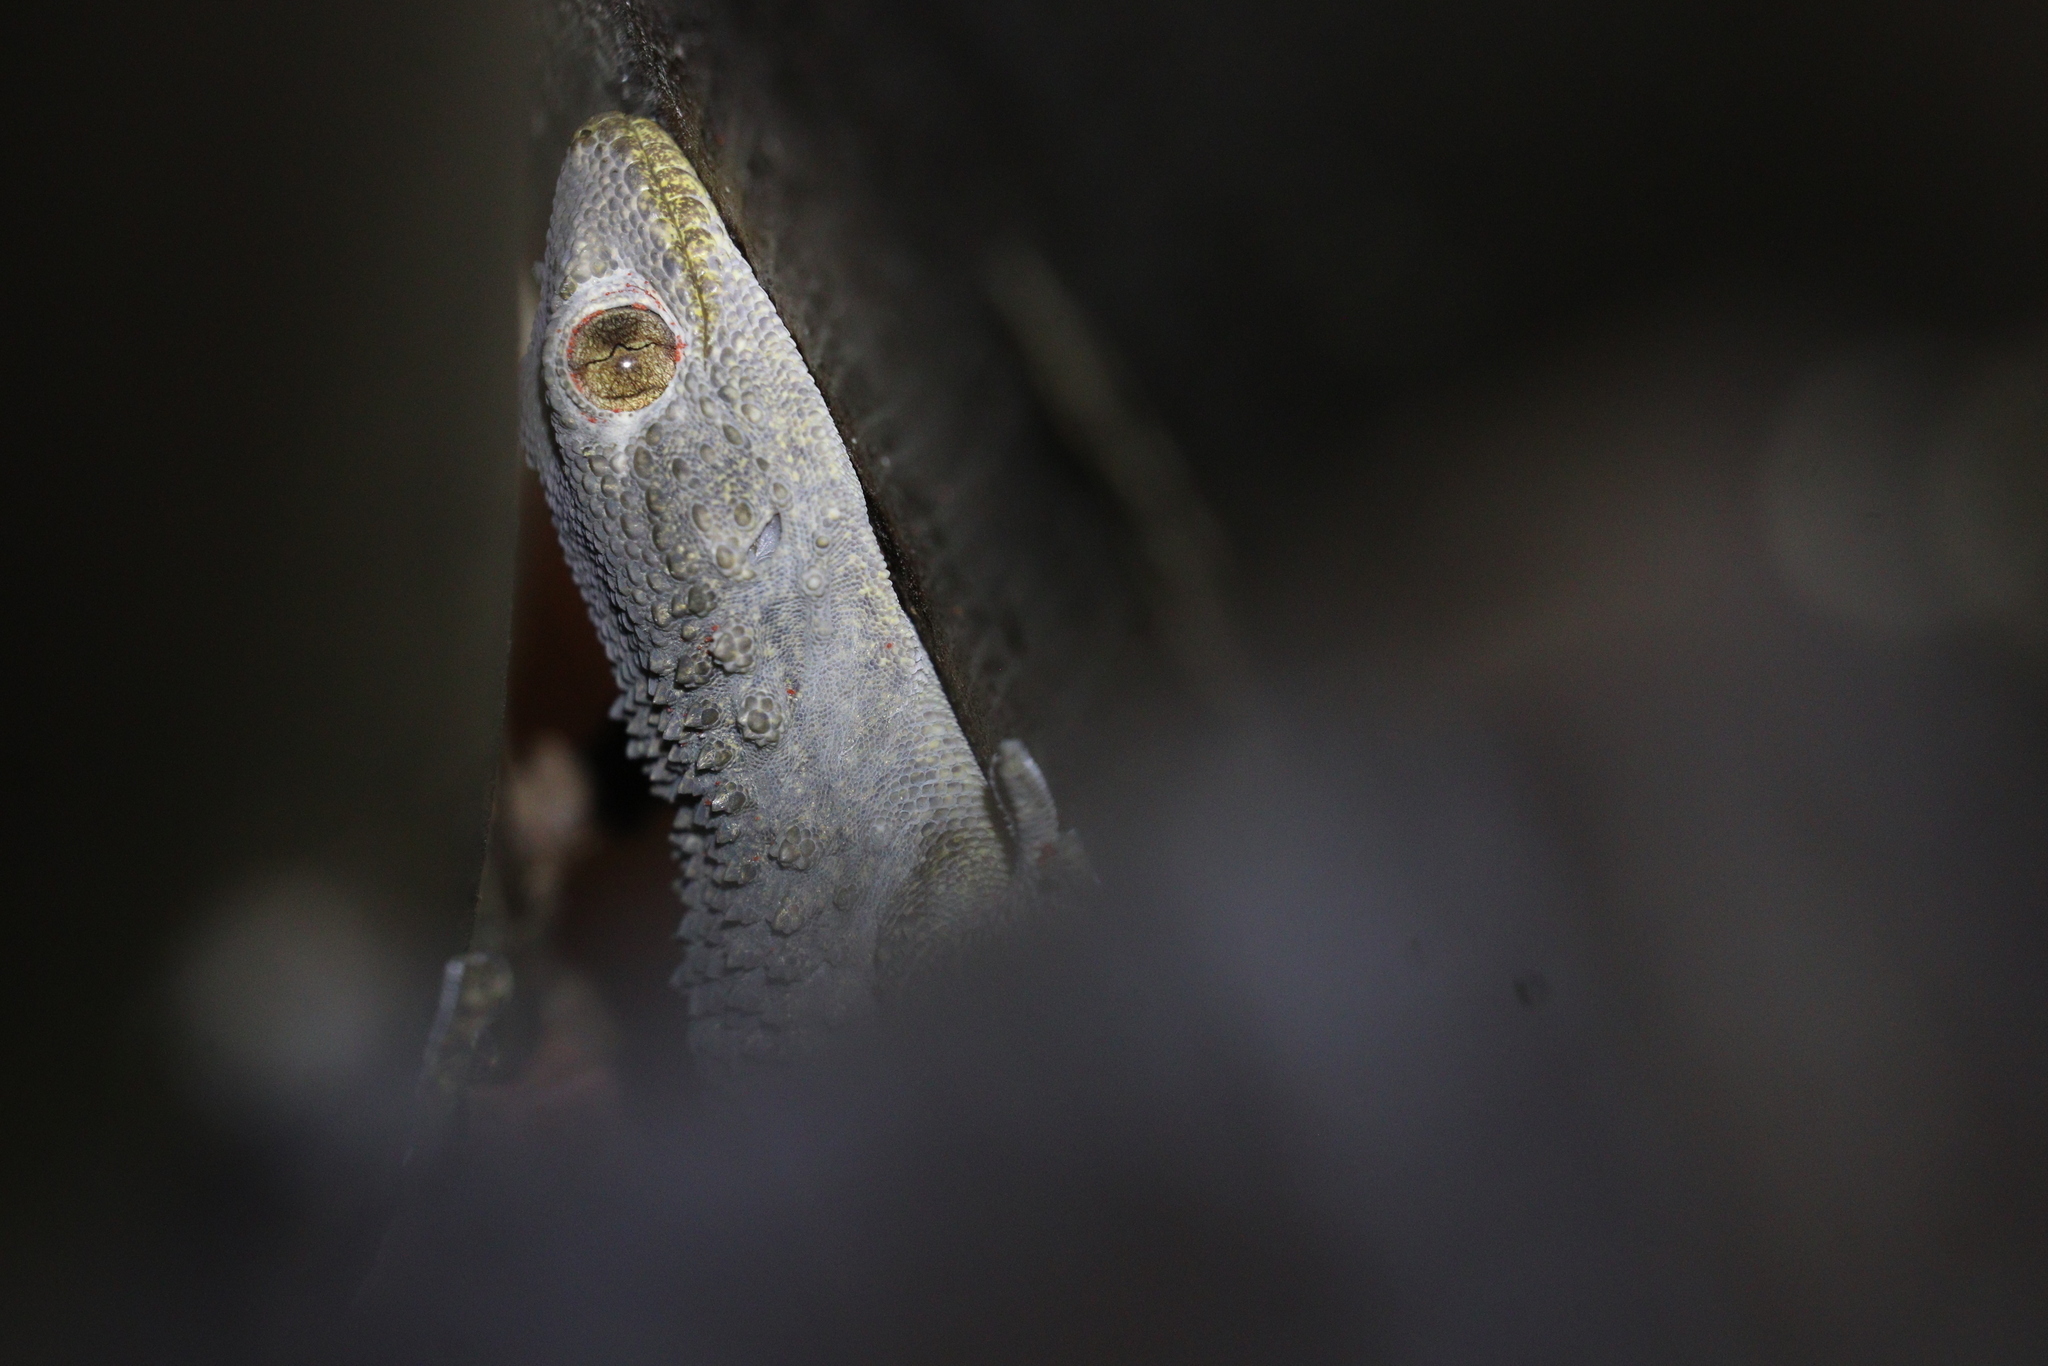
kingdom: Animalia
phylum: Chordata
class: Squamata
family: Phyllodactylidae
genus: Tarentola
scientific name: Tarentola mauritanica
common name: Moorish gecko
